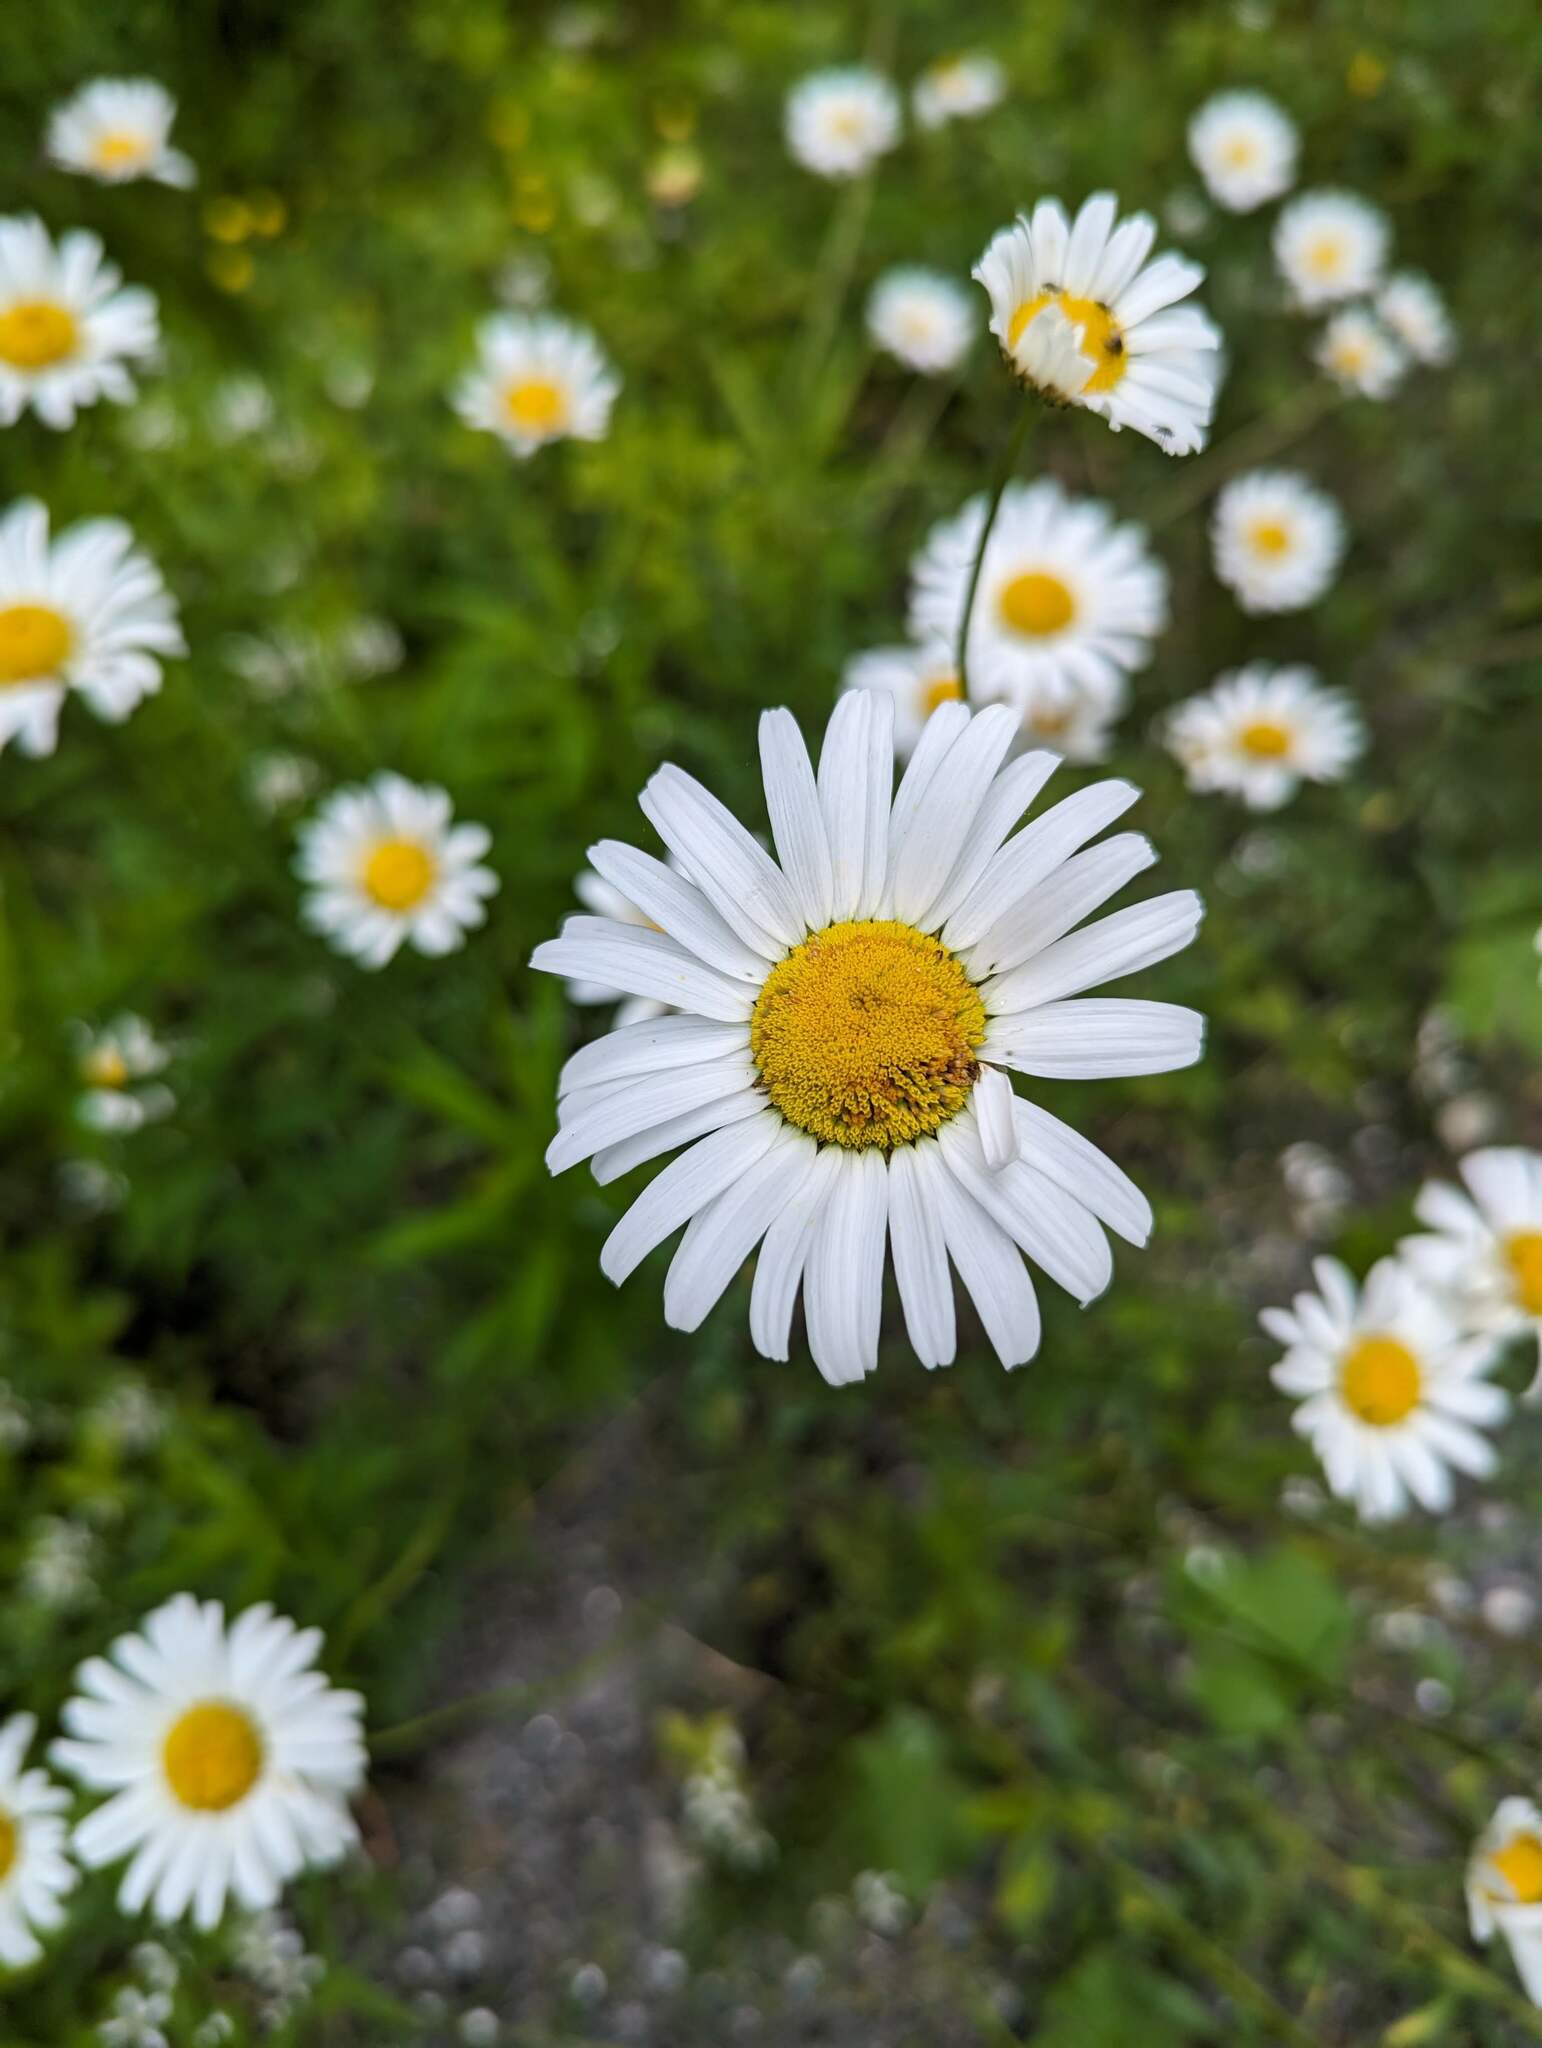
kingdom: Plantae
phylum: Tracheophyta
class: Magnoliopsida
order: Asterales
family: Asteraceae
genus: Leucanthemum
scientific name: Leucanthemum vulgare
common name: Oxeye daisy
